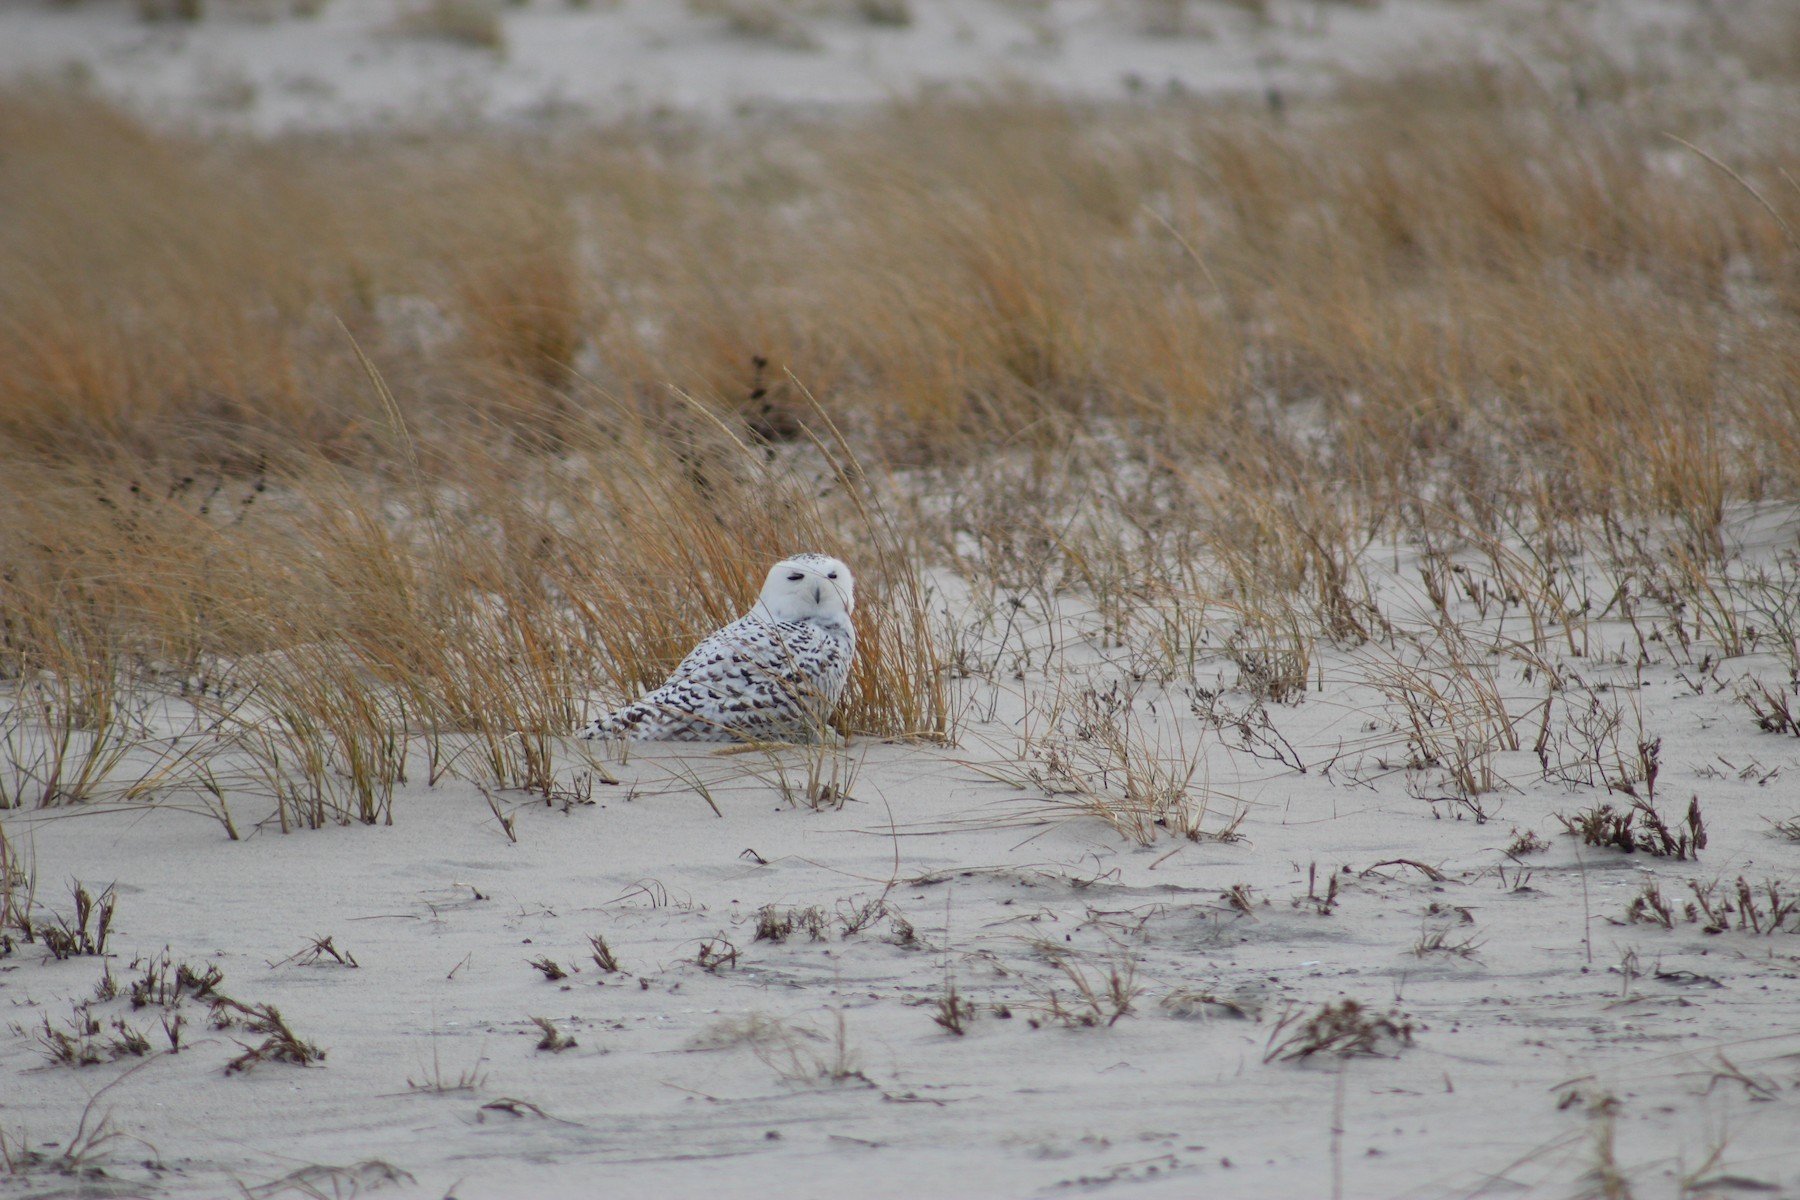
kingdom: Animalia
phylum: Chordata
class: Aves
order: Strigiformes
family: Strigidae
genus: Bubo
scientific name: Bubo scandiacus
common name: Snowy owl
